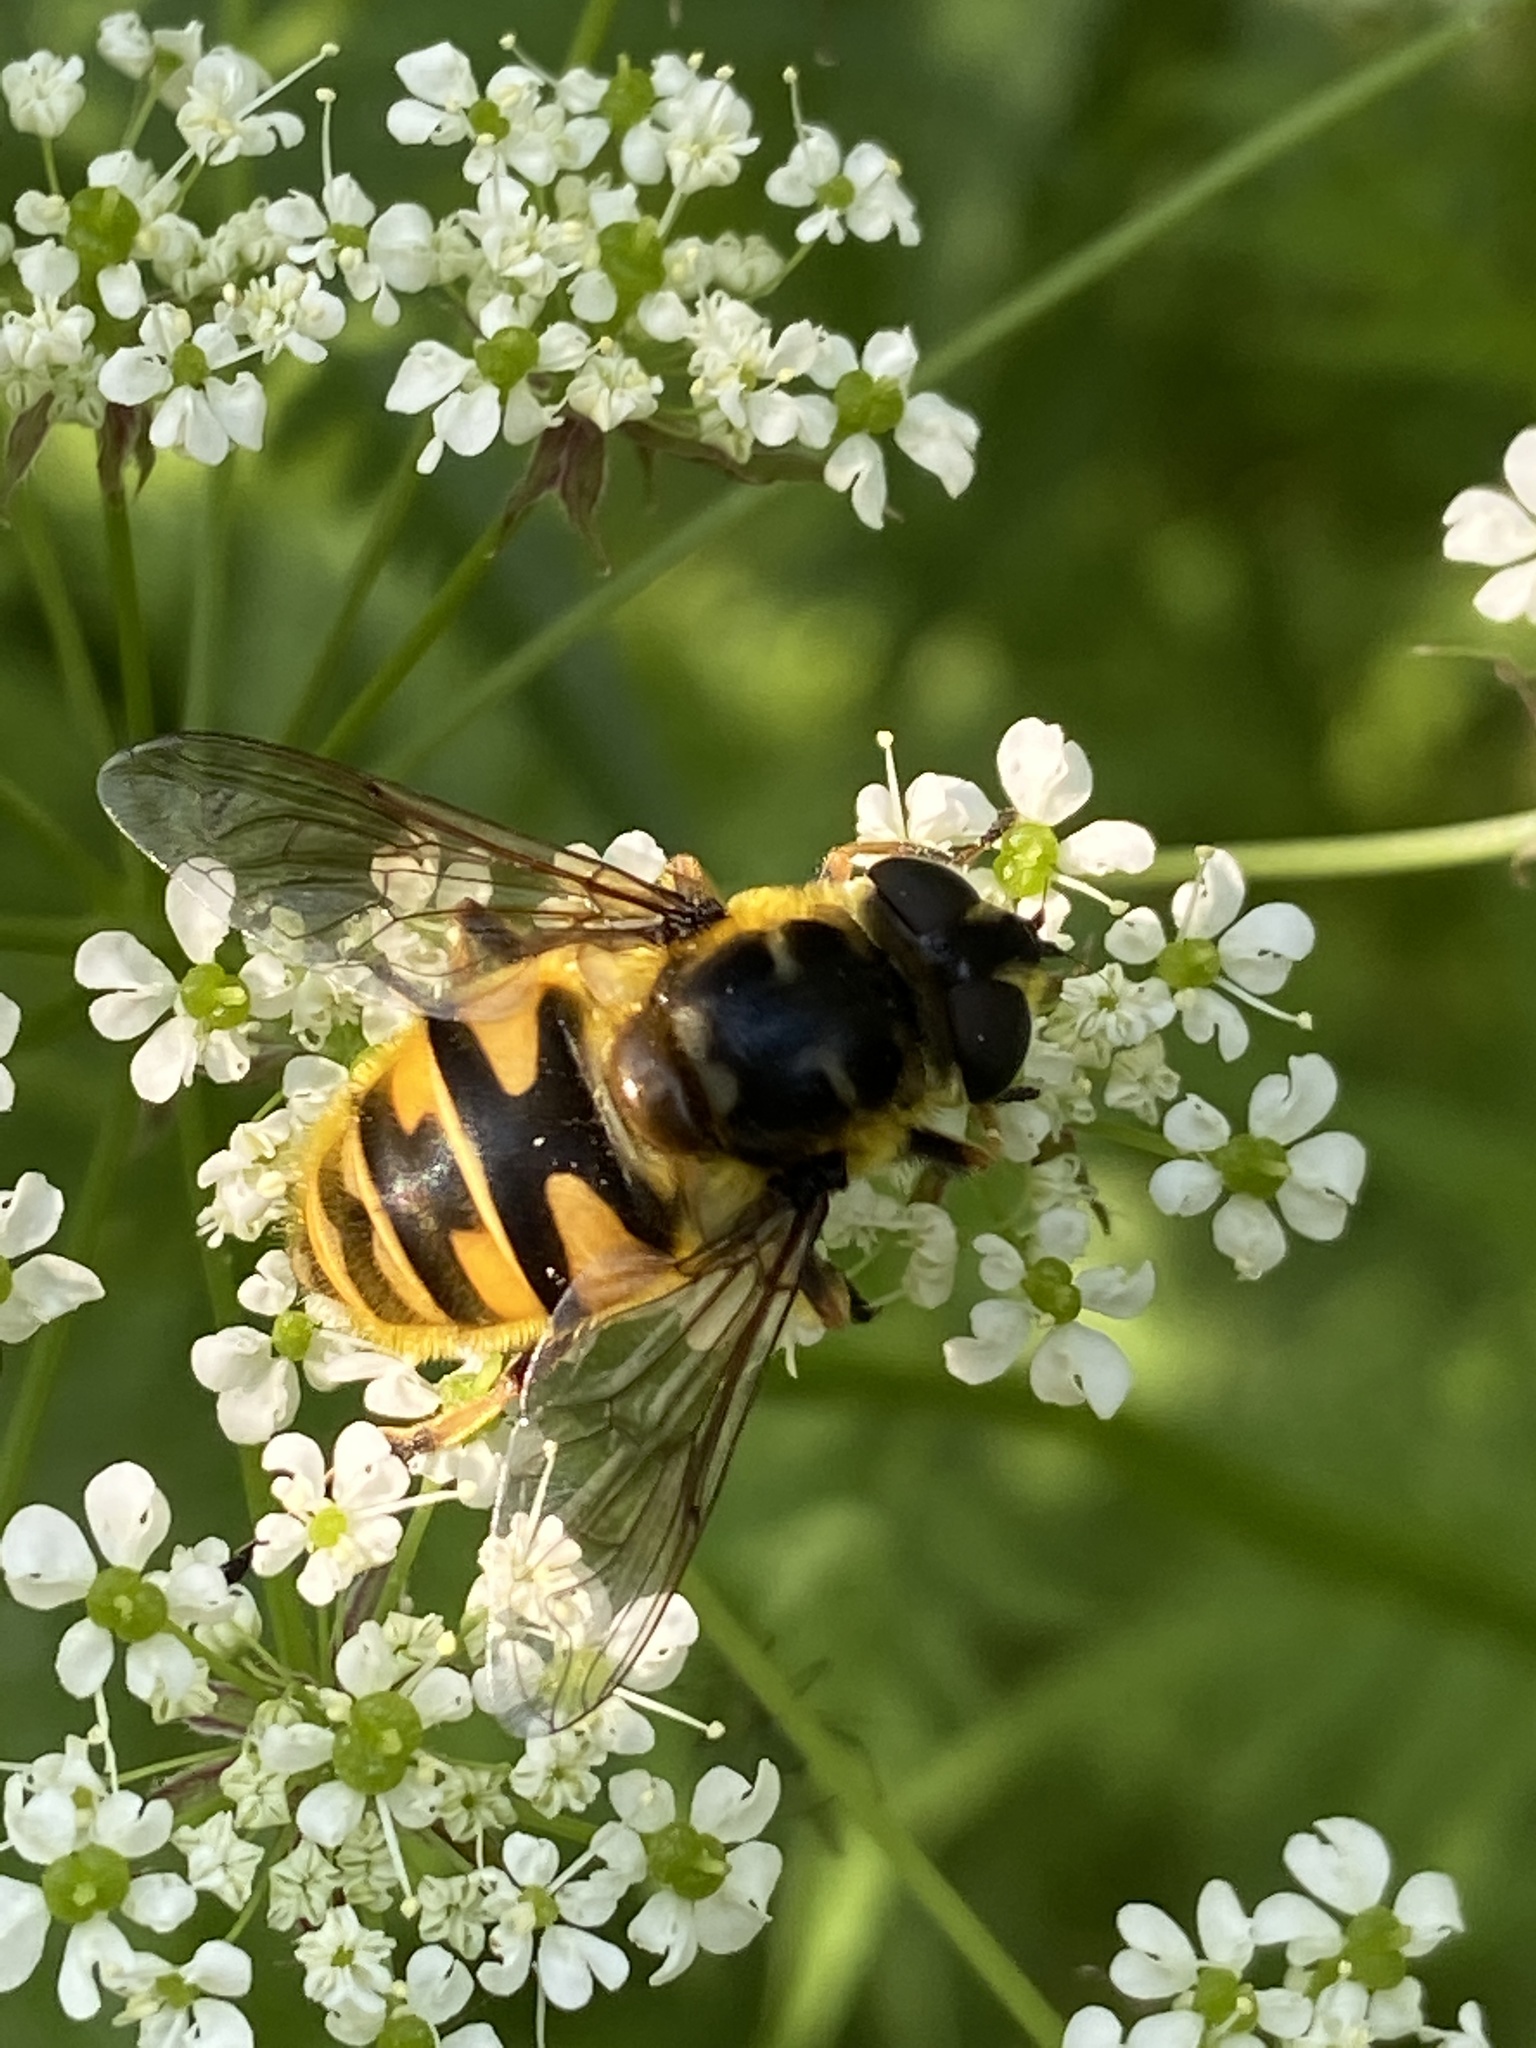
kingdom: Animalia
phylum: Arthropoda
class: Insecta
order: Diptera
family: Syrphidae
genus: Myathropa
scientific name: Myathropa florea
